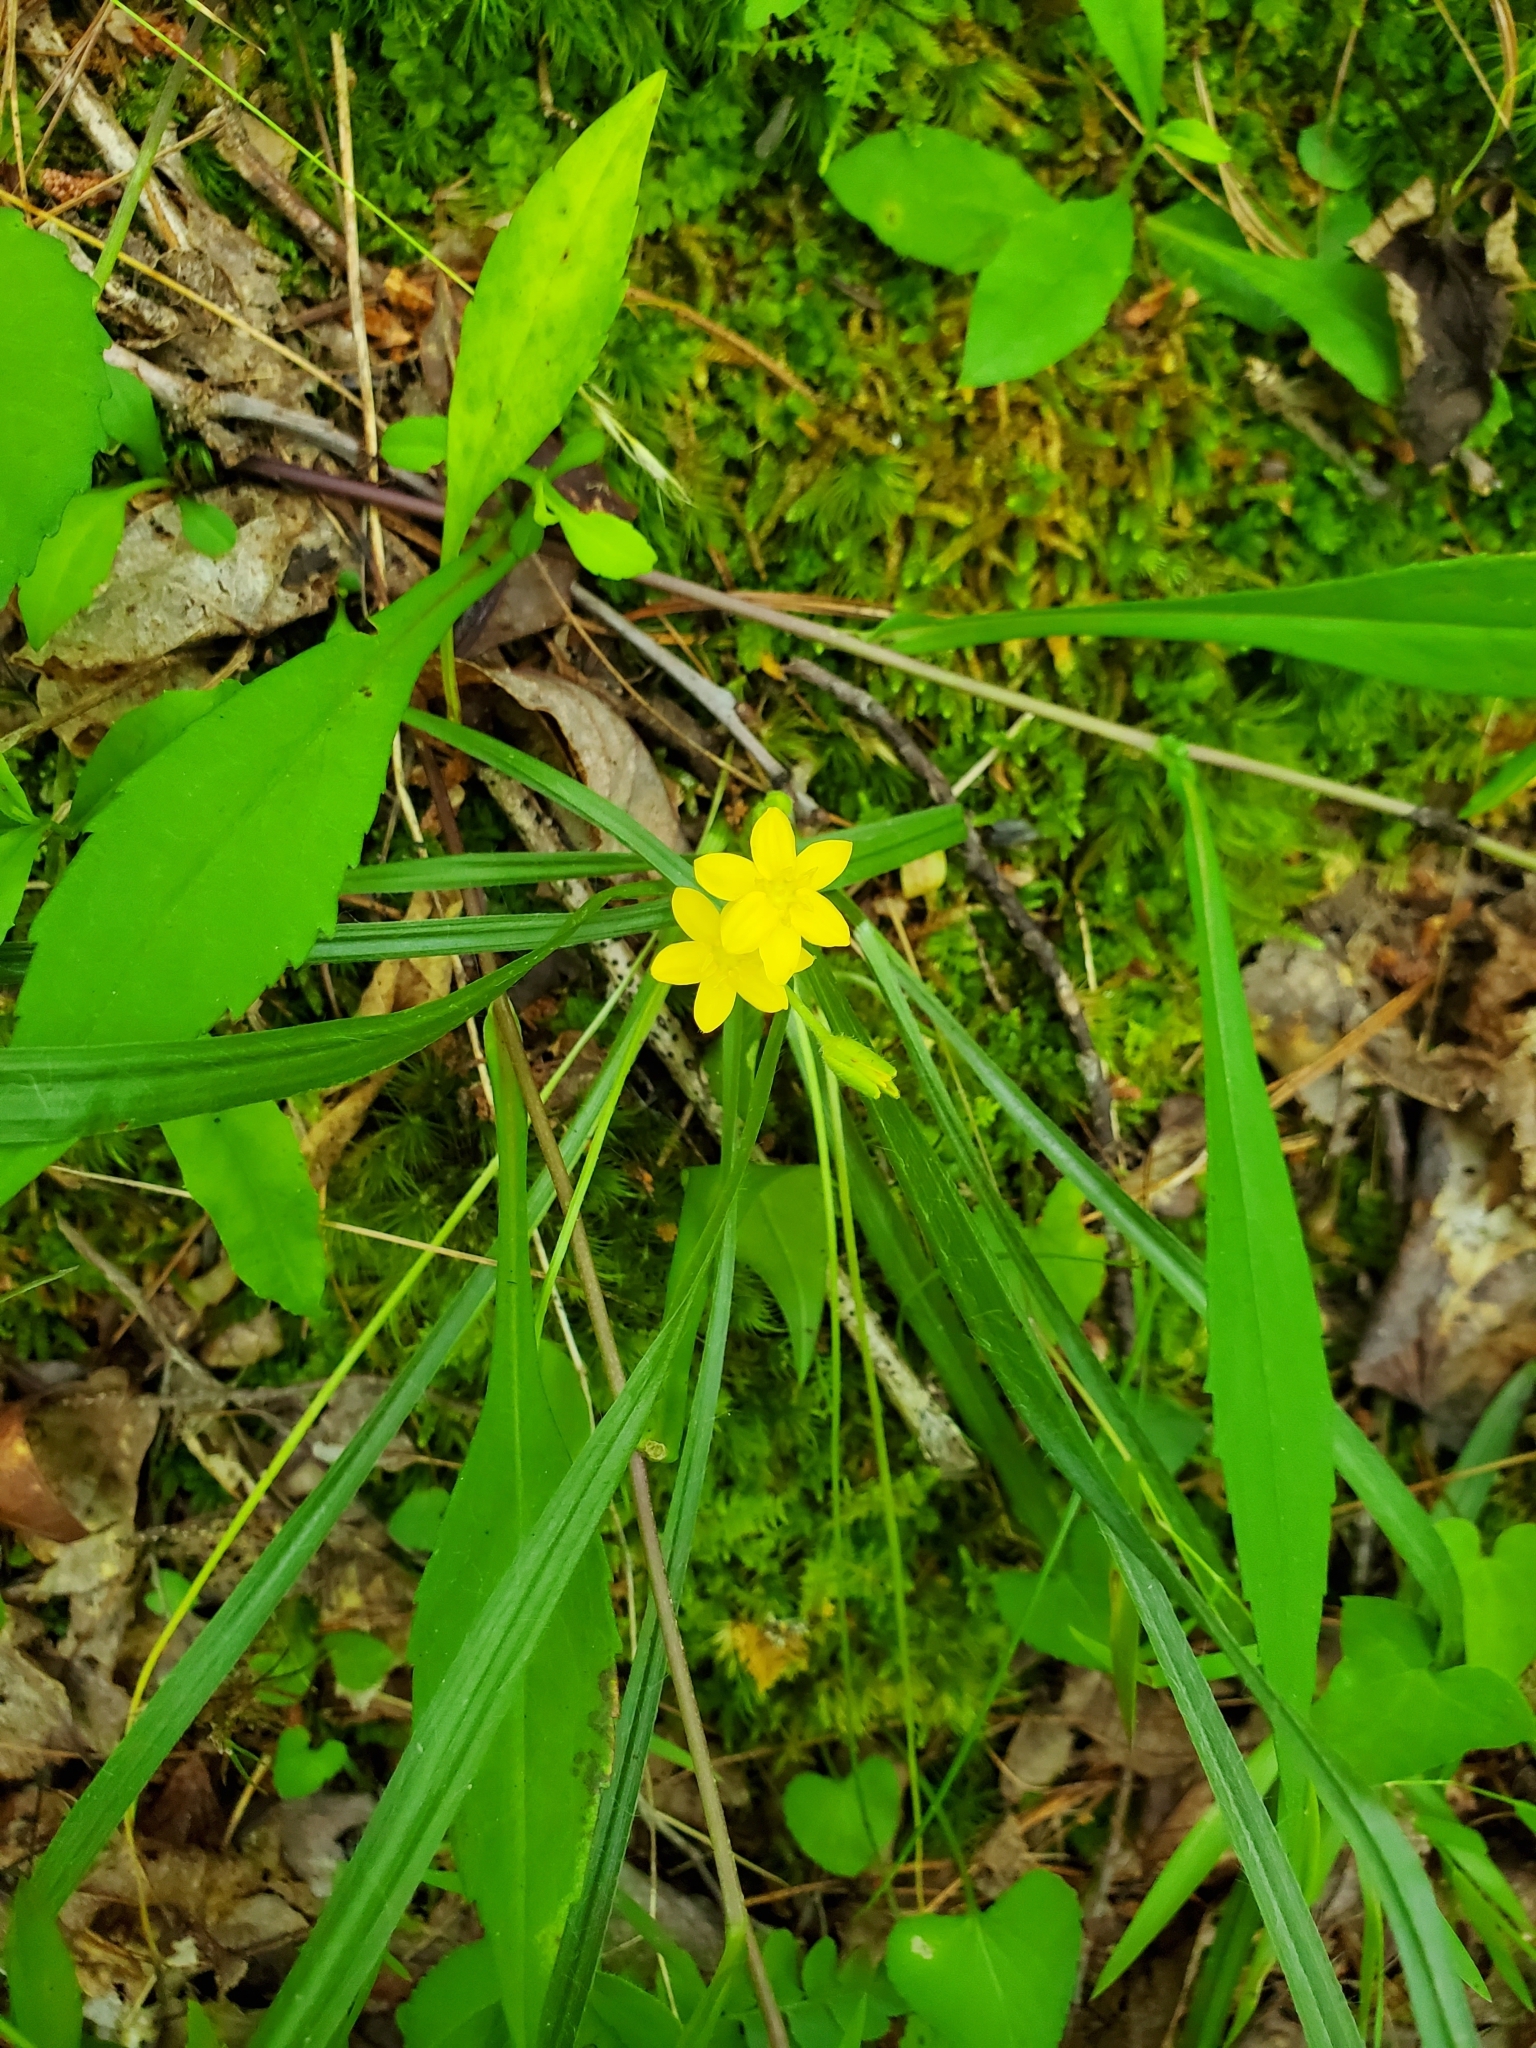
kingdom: Plantae
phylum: Tracheophyta
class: Liliopsida
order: Asparagales
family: Hypoxidaceae
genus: Hypoxis
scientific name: Hypoxis hirsuta
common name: Common goldstar
